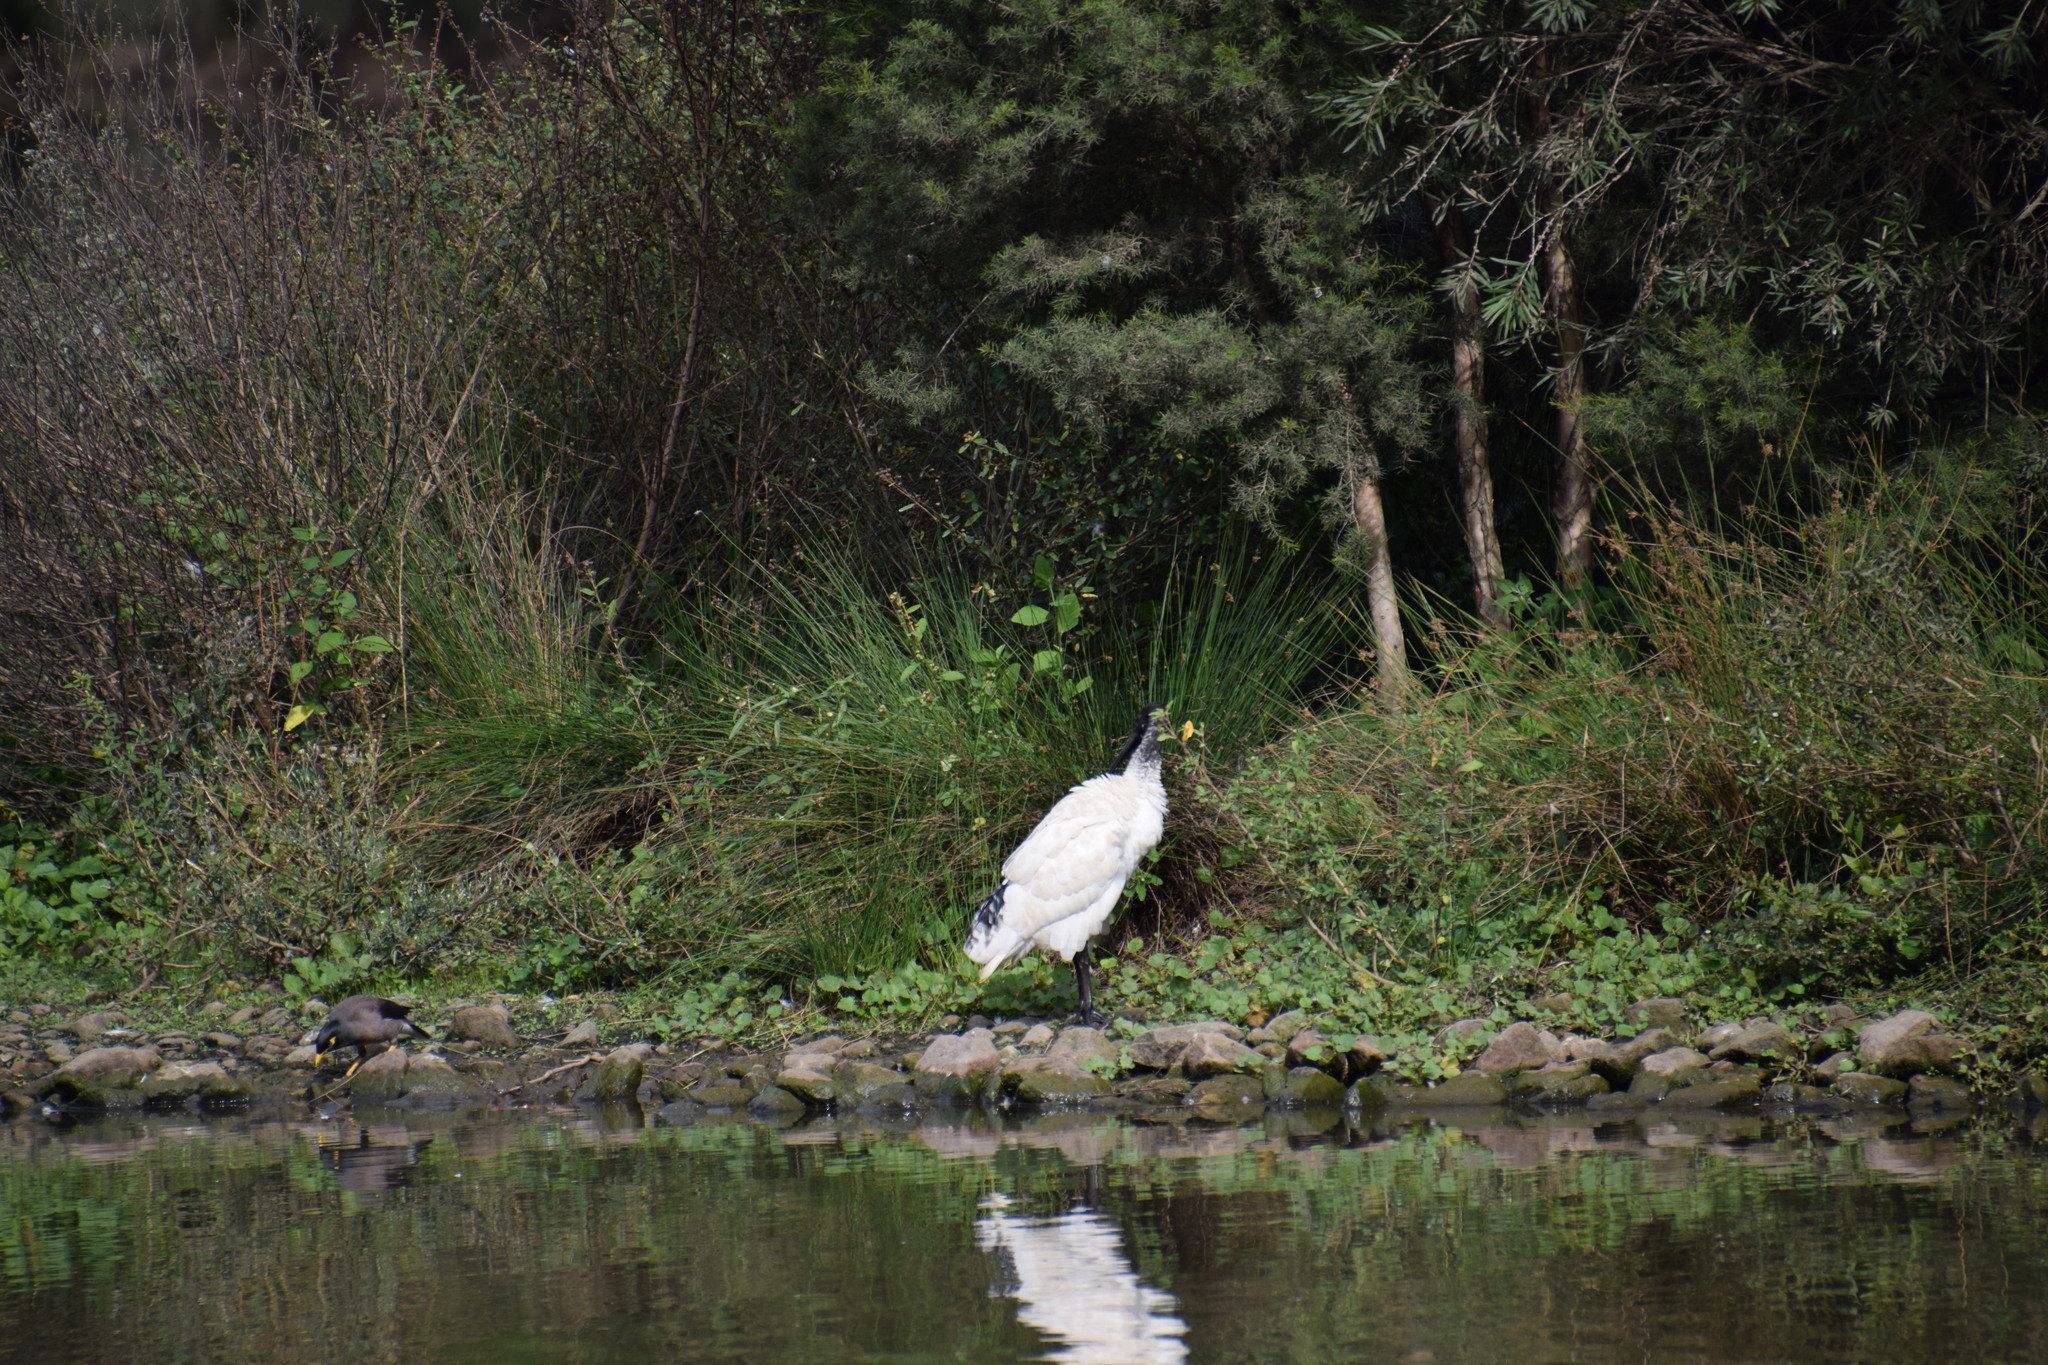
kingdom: Animalia
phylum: Chordata
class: Aves
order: Pelecaniformes
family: Threskiornithidae
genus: Threskiornis
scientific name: Threskiornis molucca
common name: Australian white ibis
